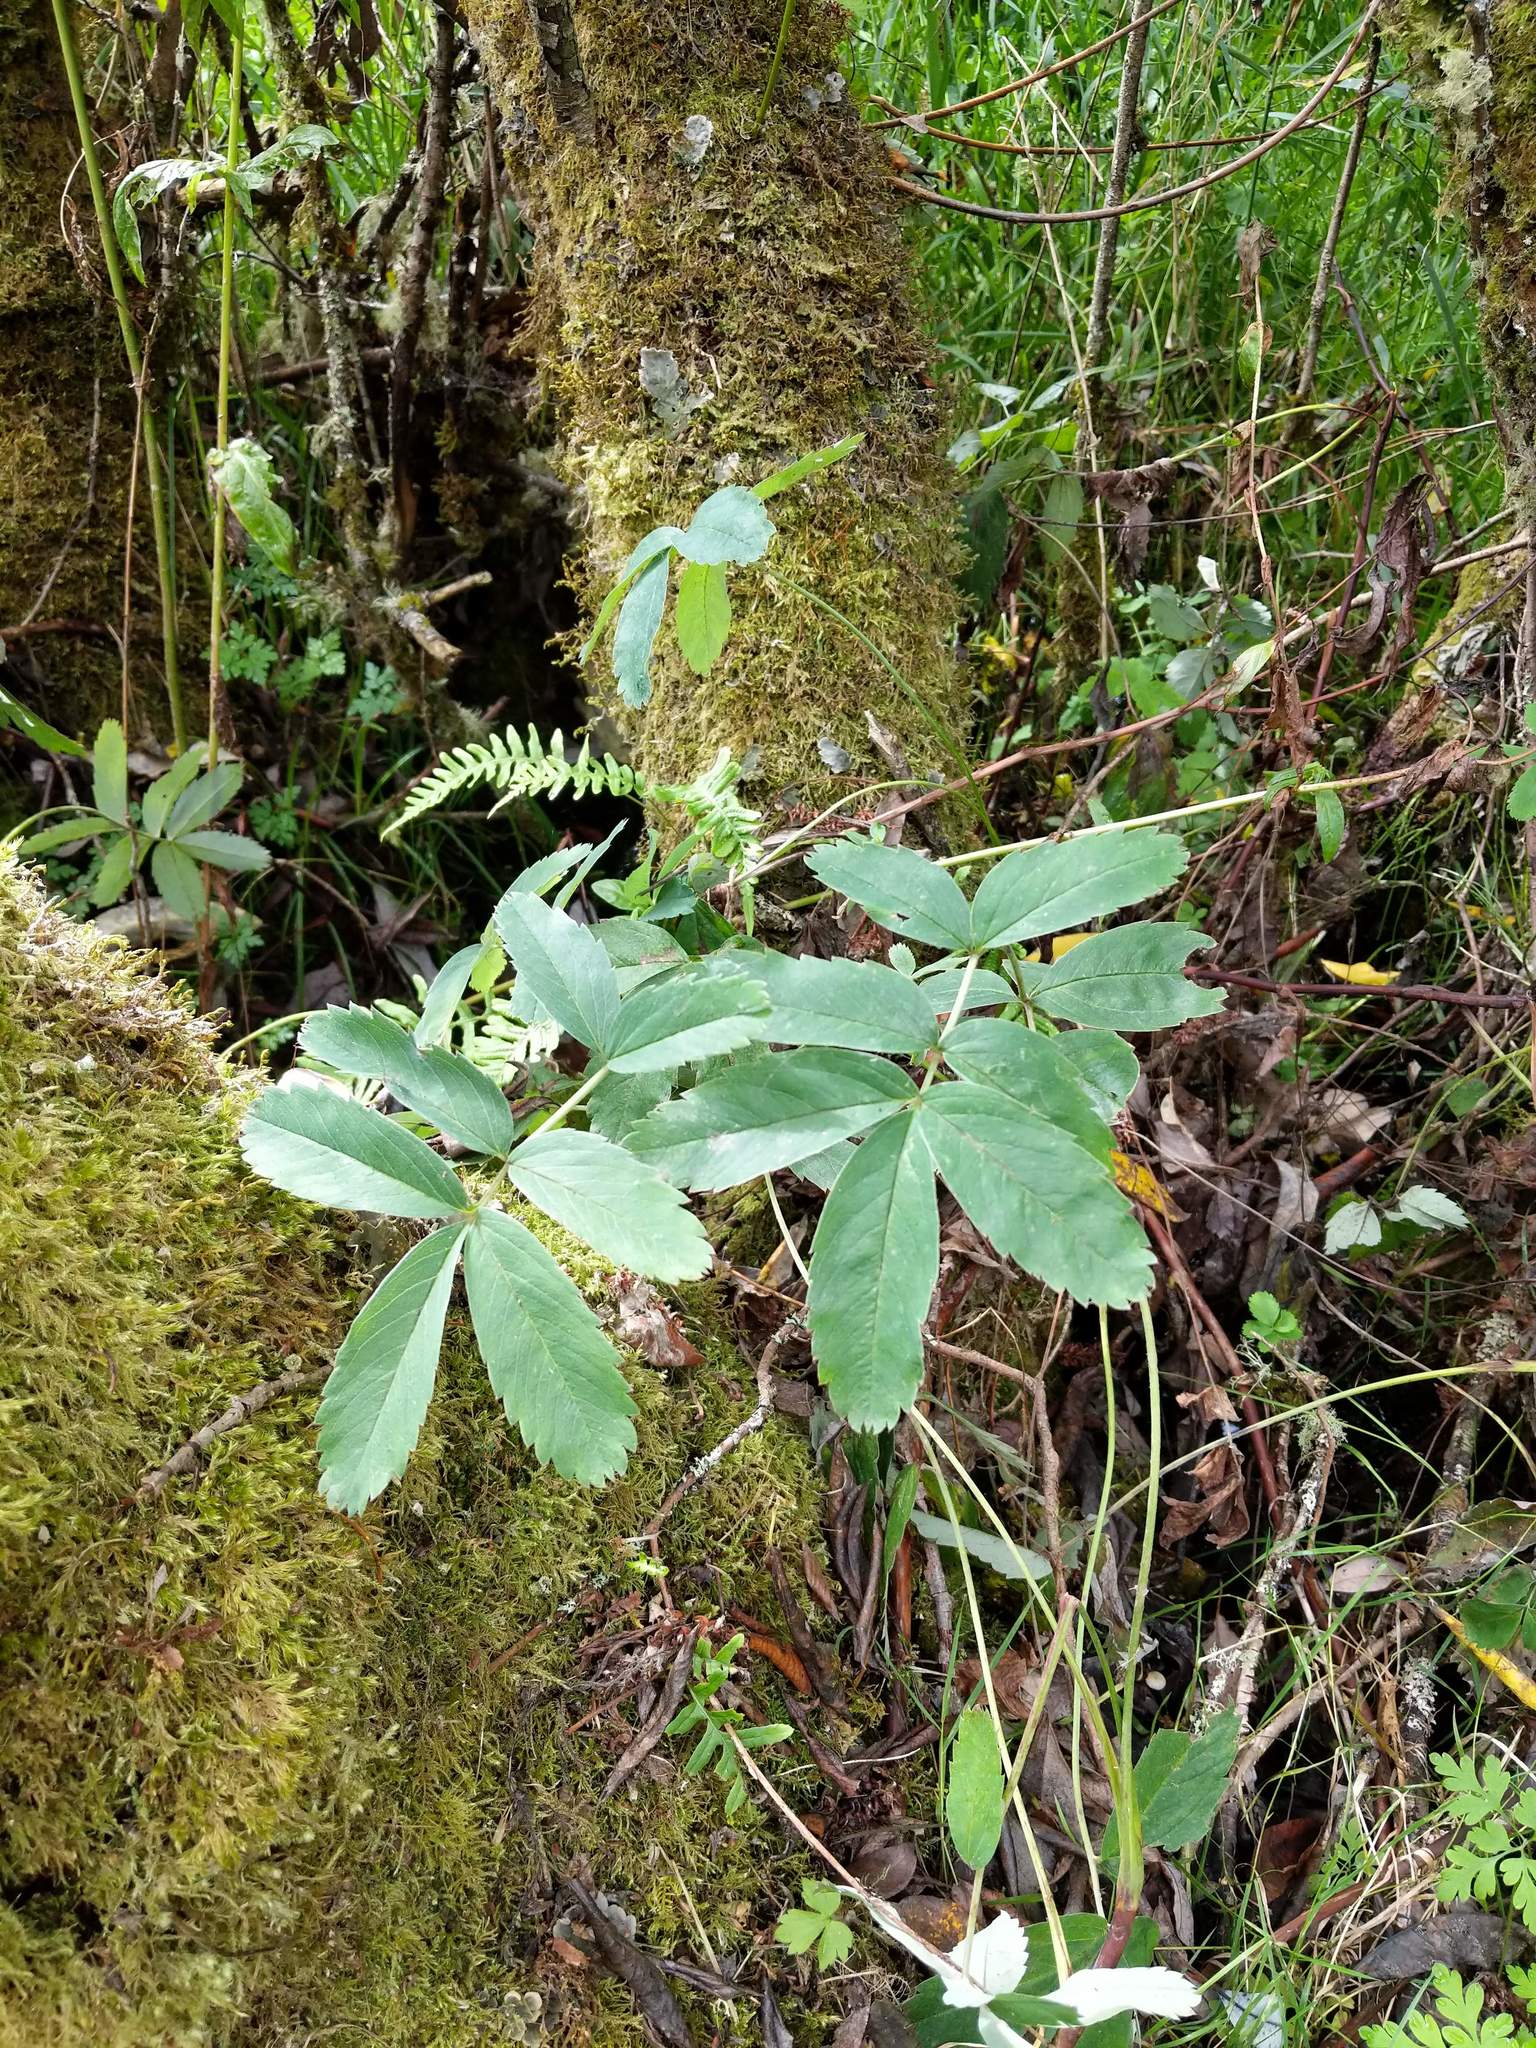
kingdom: Plantae
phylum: Tracheophyta
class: Magnoliopsida
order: Rosales
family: Rosaceae
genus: Comarum
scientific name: Comarum palustre
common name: Marsh cinquefoil
